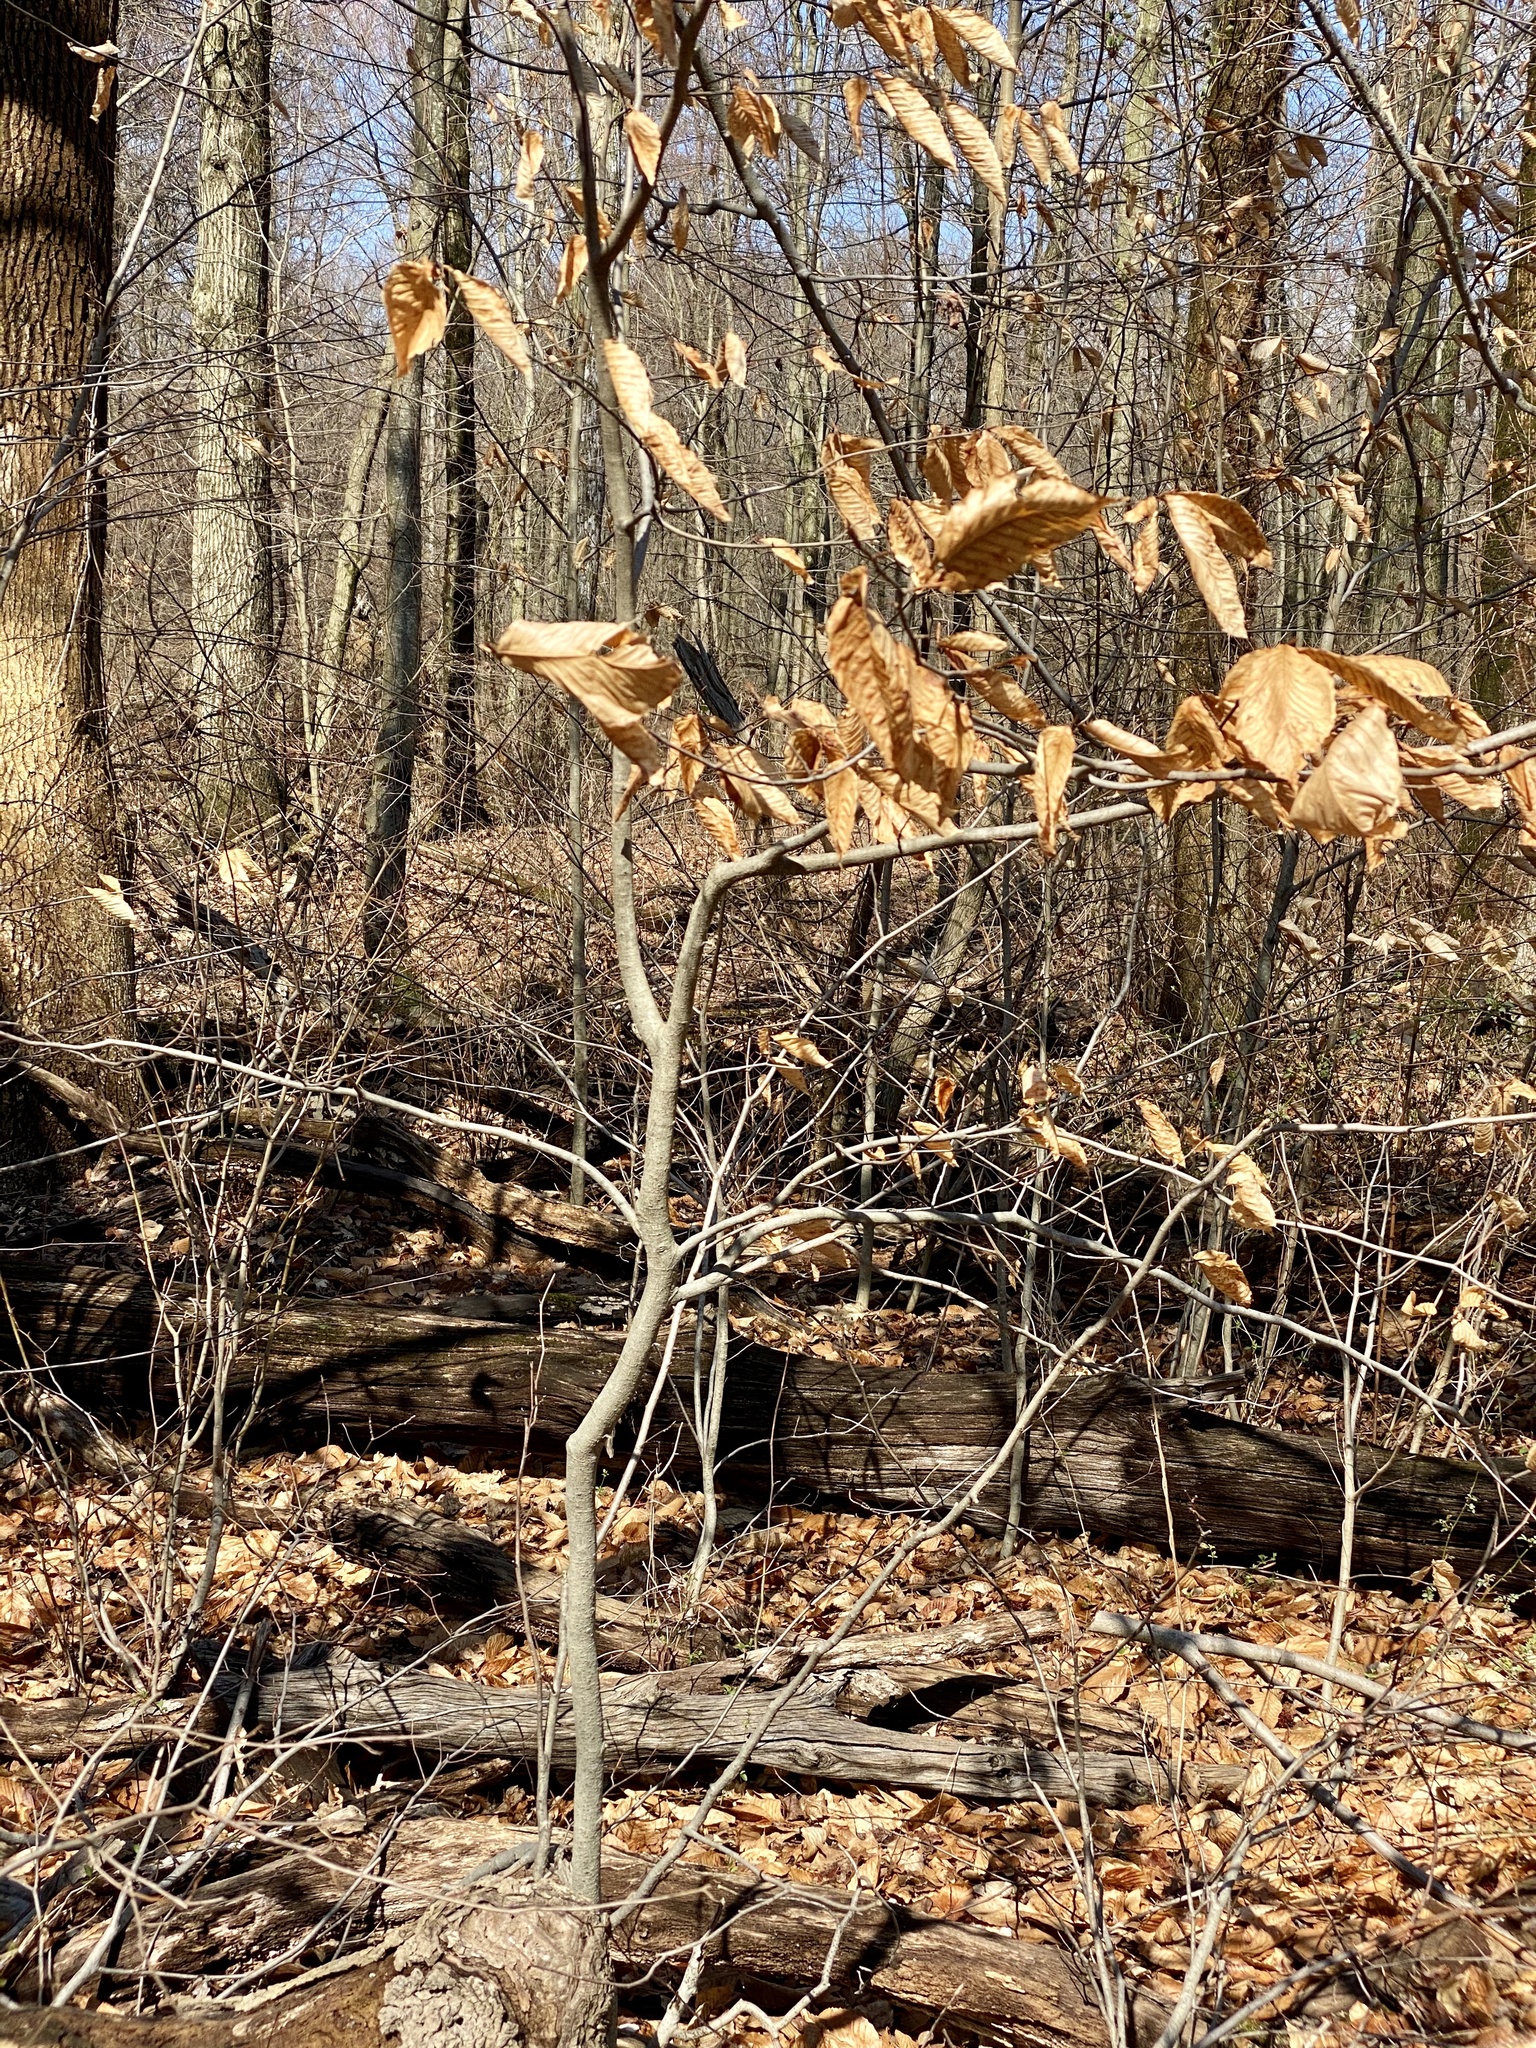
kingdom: Plantae
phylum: Tracheophyta
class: Magnoliopsida
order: Fagales
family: Fagaceae
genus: Fagus
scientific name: Fagus grandifolia
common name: American beech
